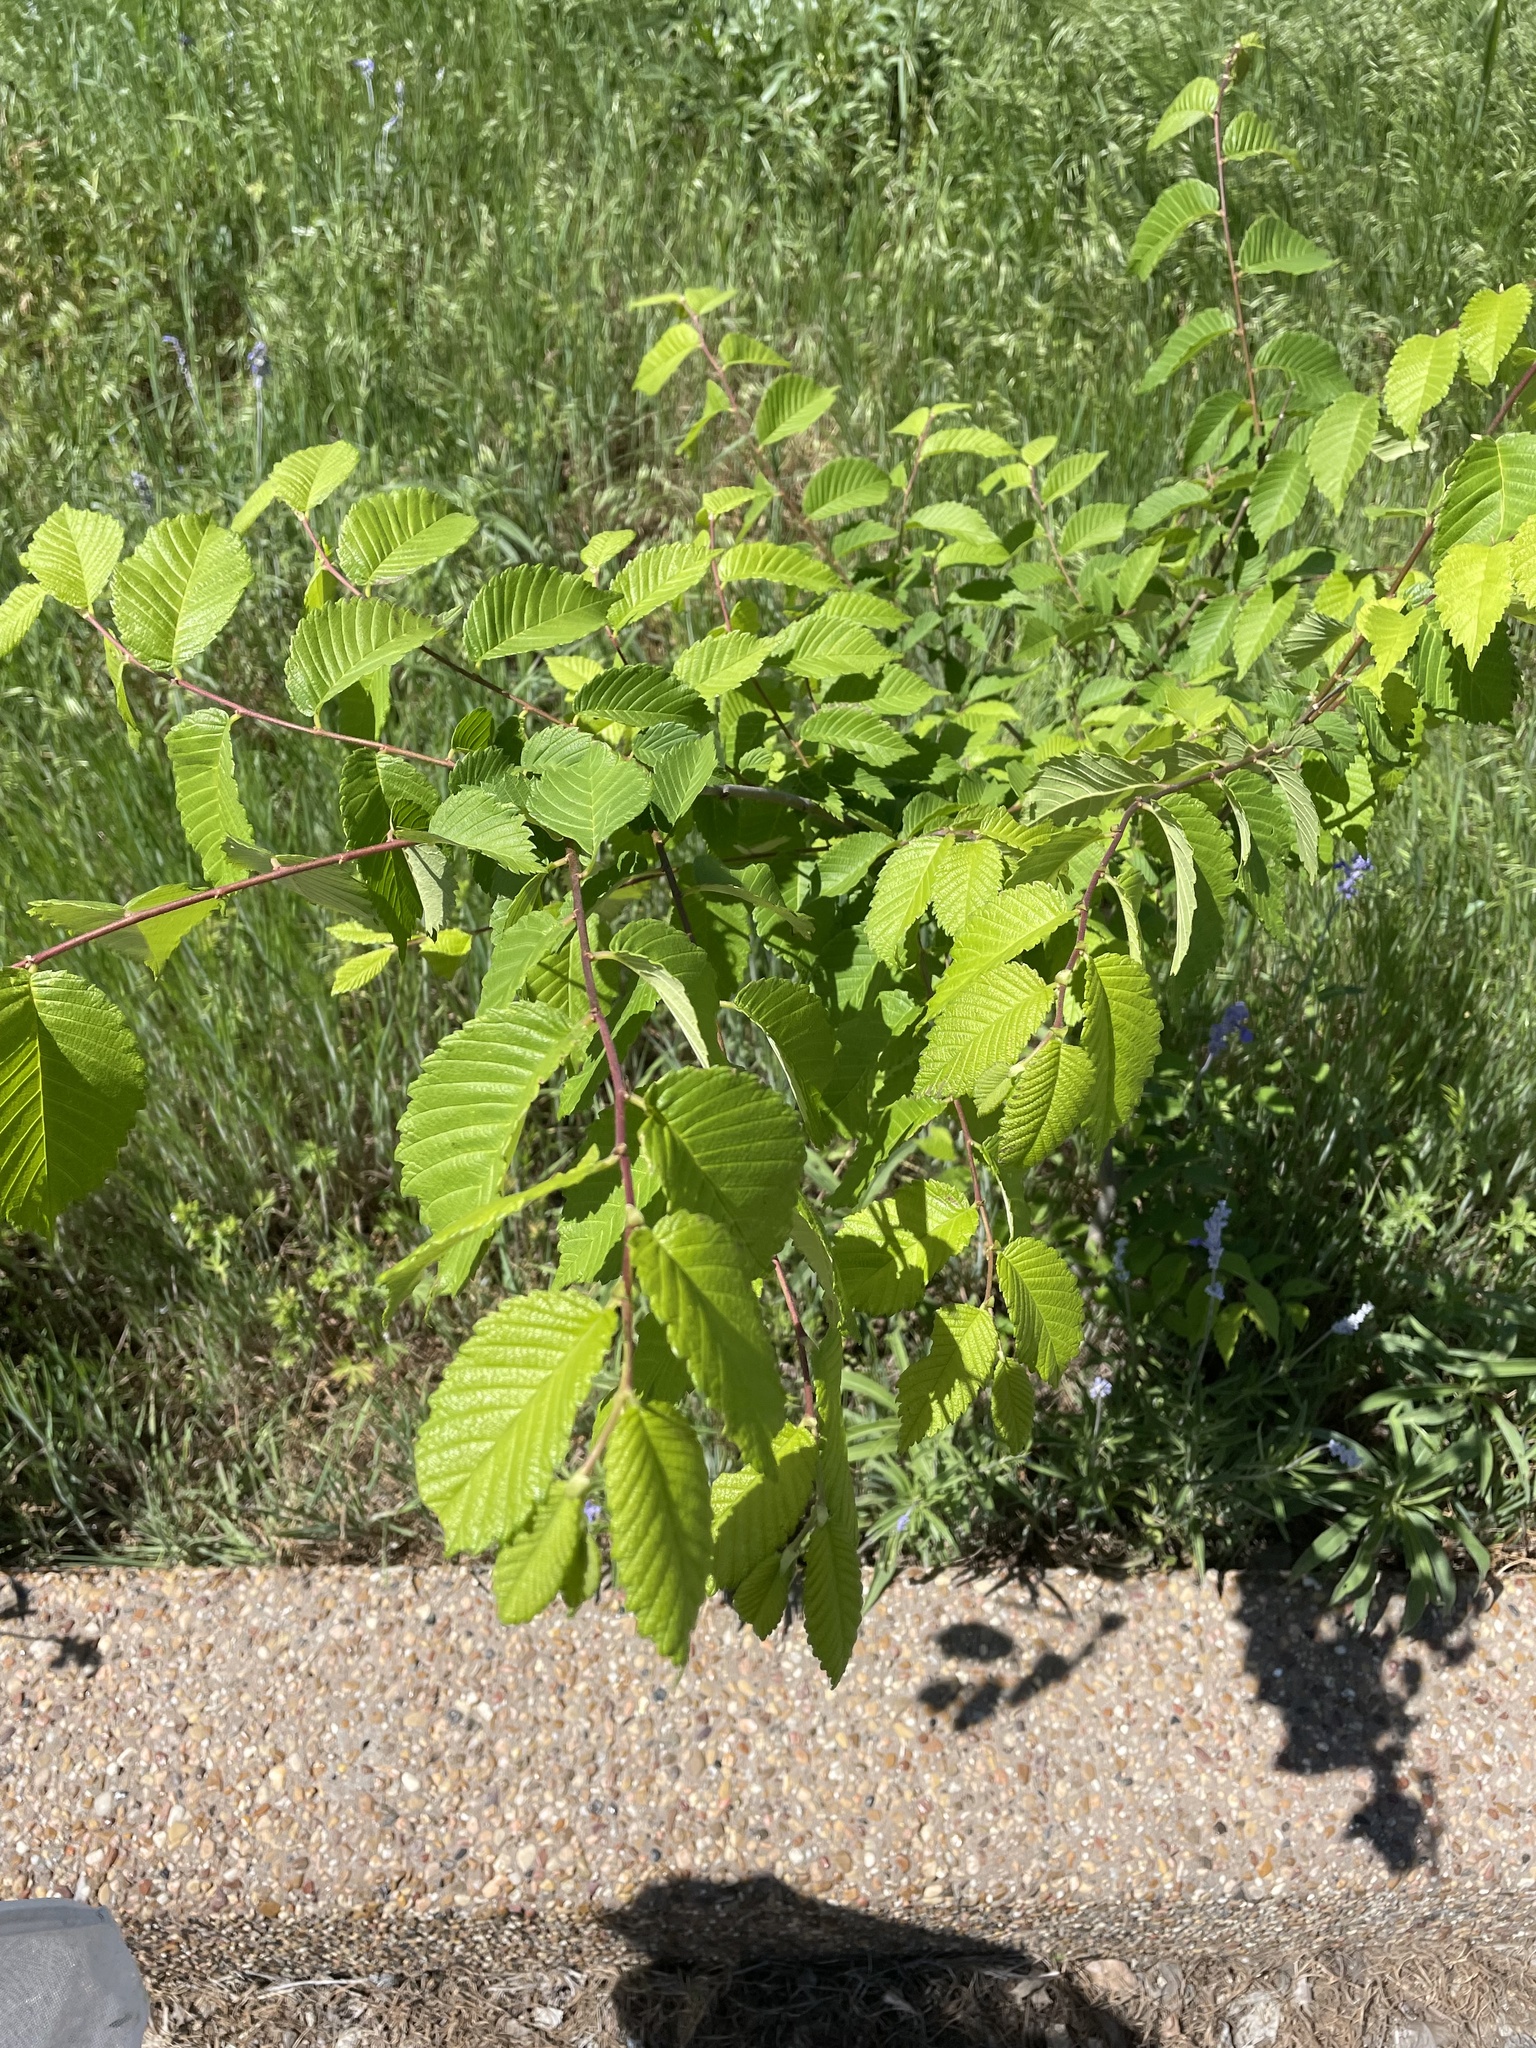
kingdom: Plantae
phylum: Tracheophyta
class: Magnoliopsida
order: Rosales
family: Ulmaceae
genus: Ulmus
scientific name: Ulmus americana
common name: American elm
